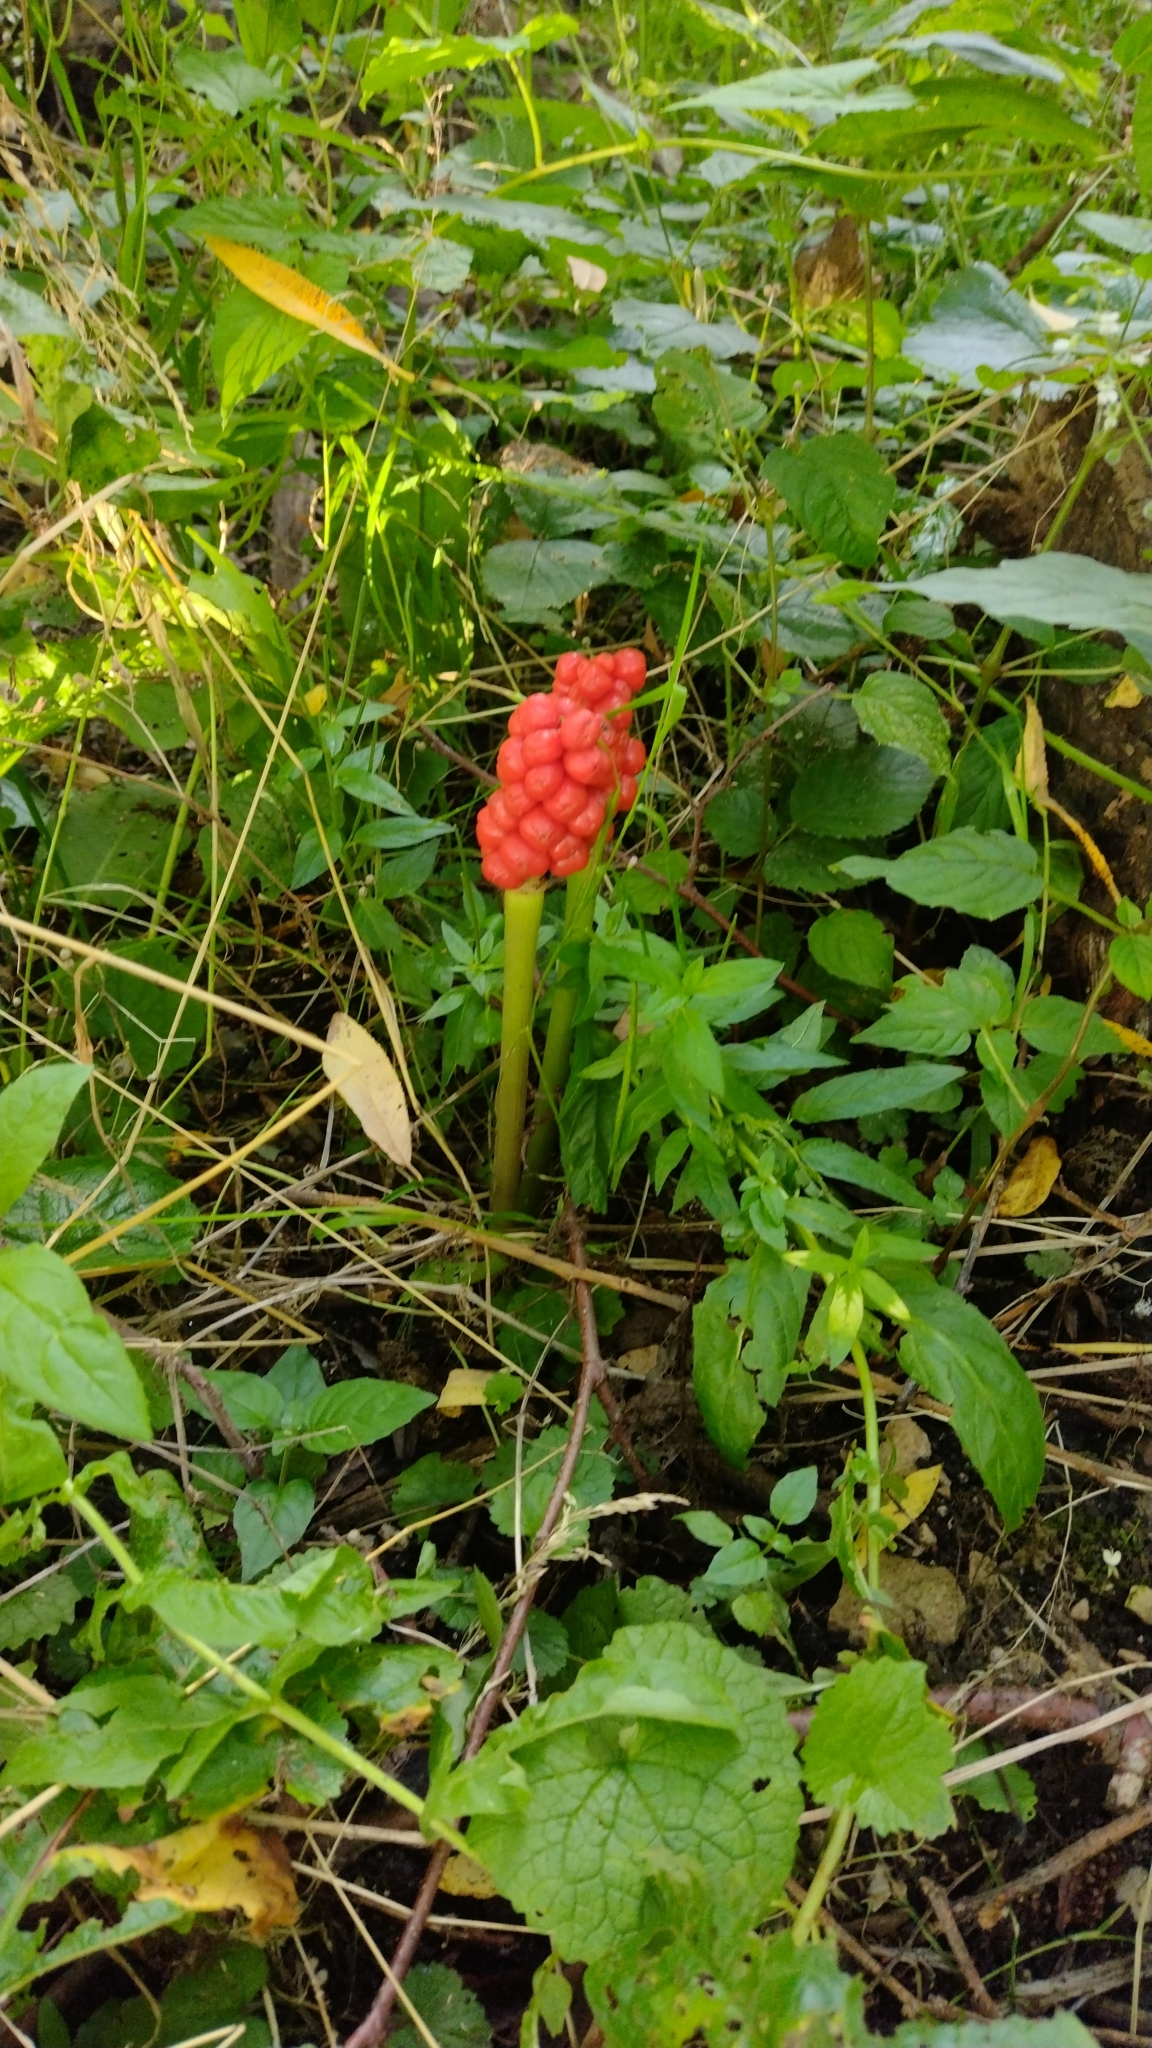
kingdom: Plantae
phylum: Tracheophyta
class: Liliopsida
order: Alismatales
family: Araceae
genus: Arum
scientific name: Arum maculatum
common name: Lords-and-ladies
